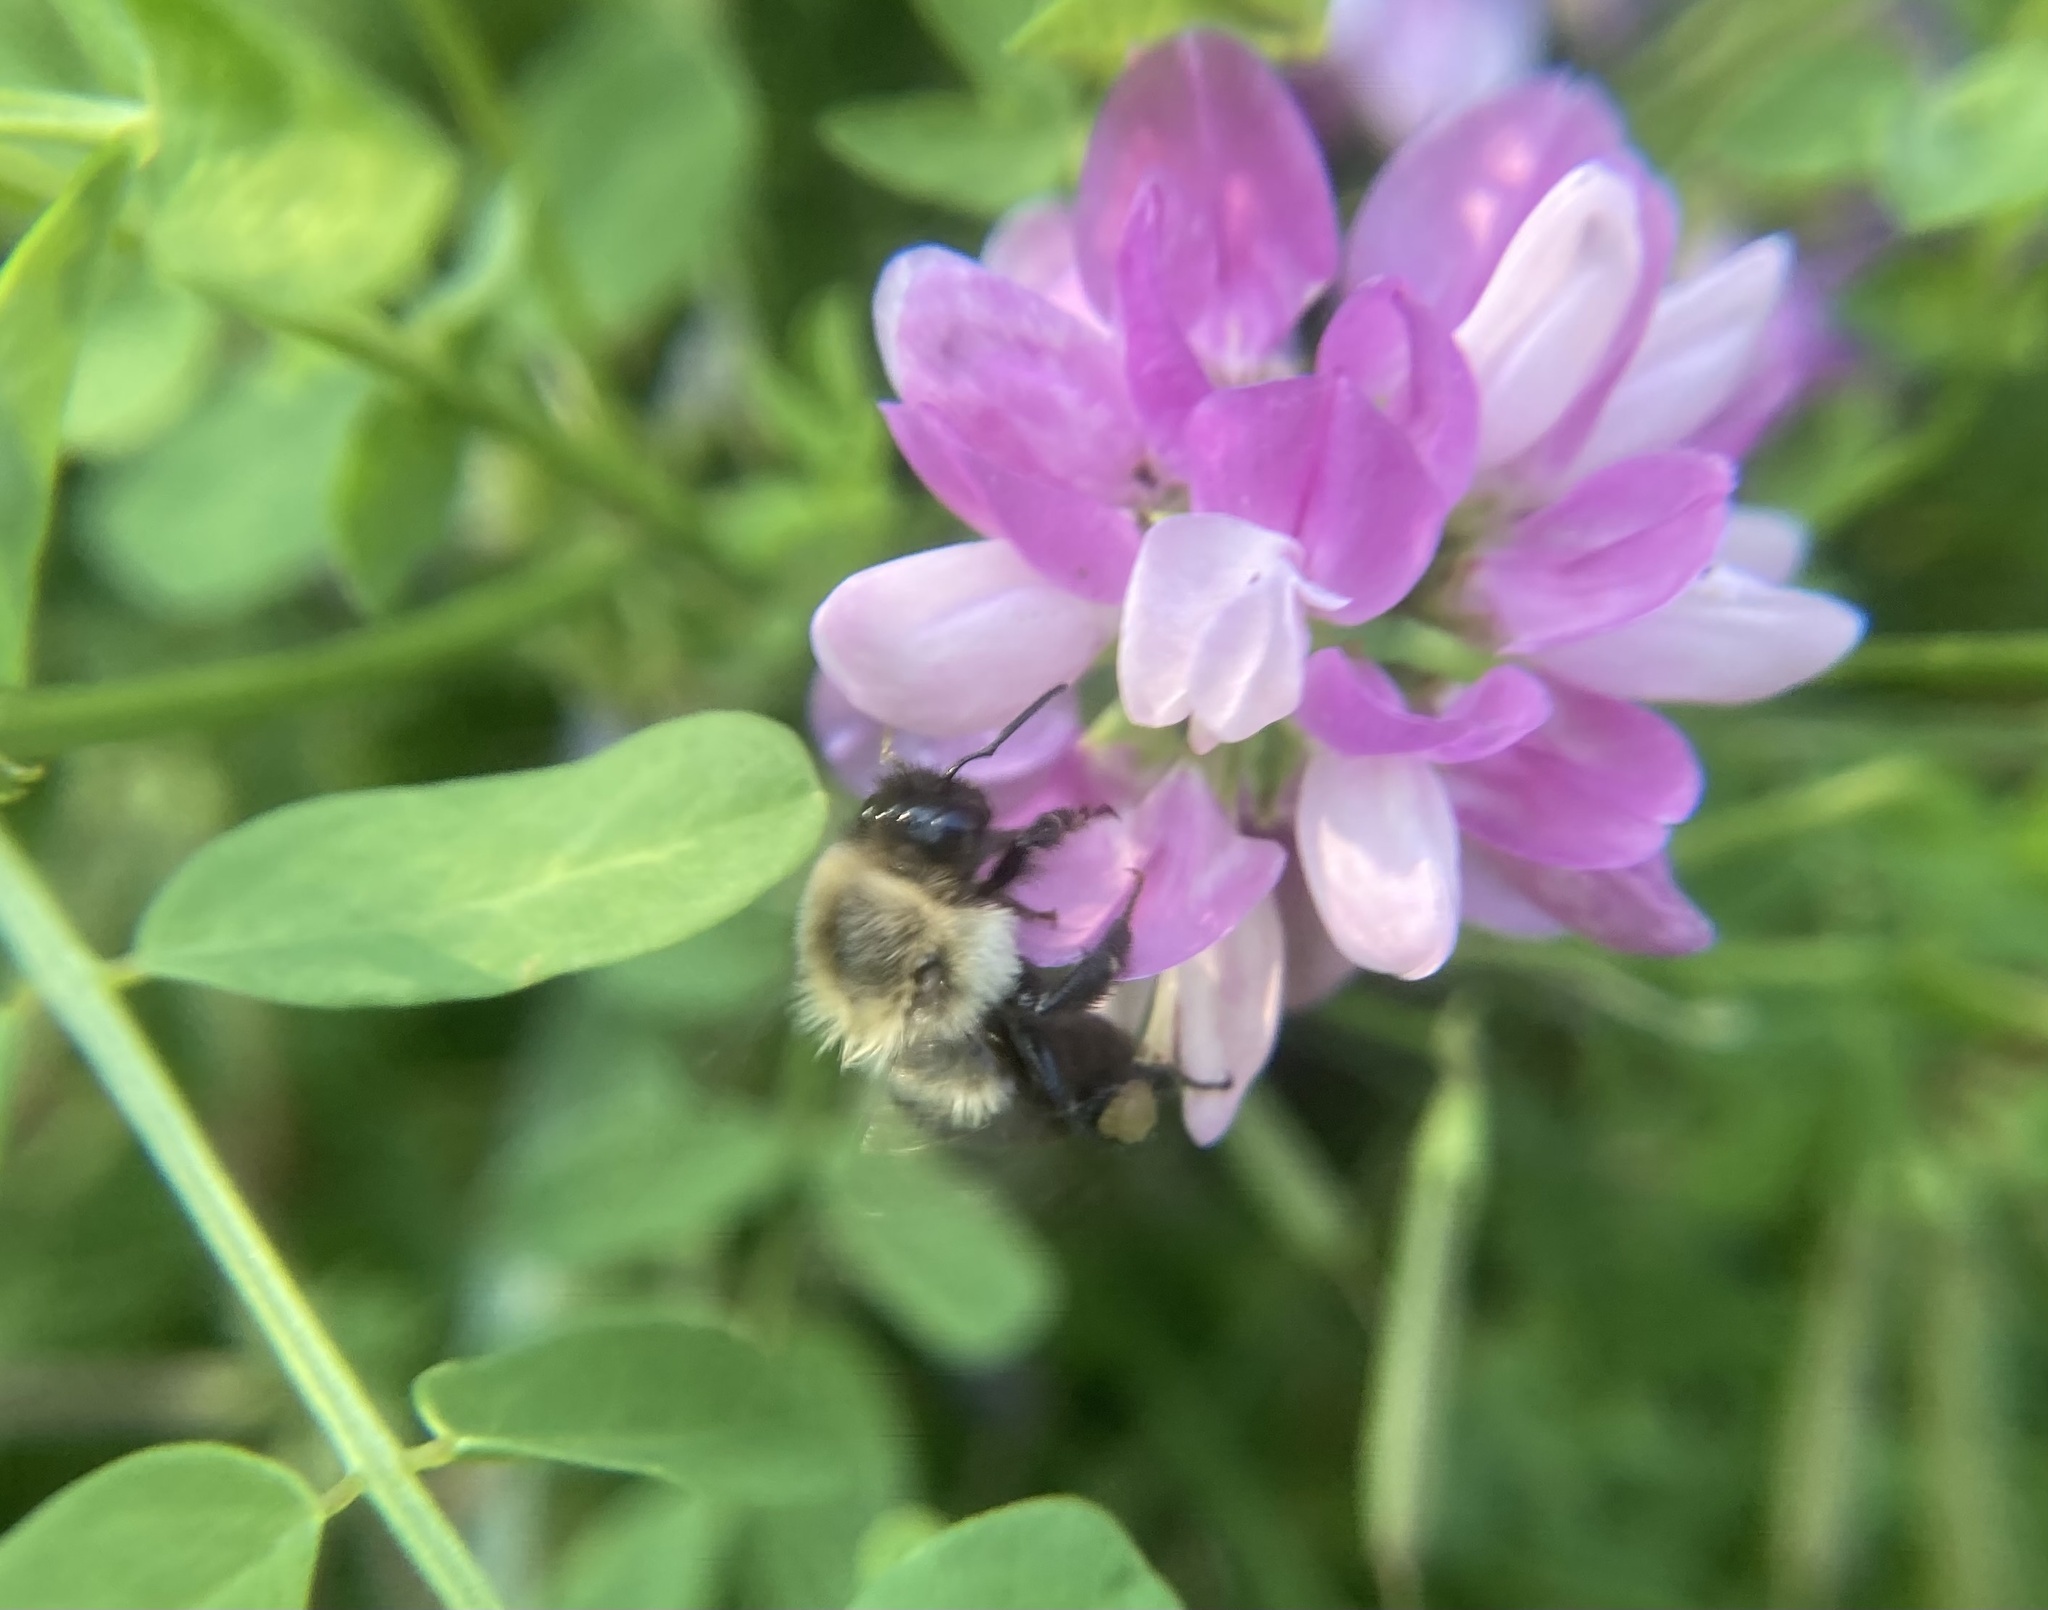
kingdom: Animalia
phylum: Arthropoda
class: Insecta
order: Hymenoptera
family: Apidae
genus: Bombus
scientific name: Bombus impatiens
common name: Common eastern bumble bee
